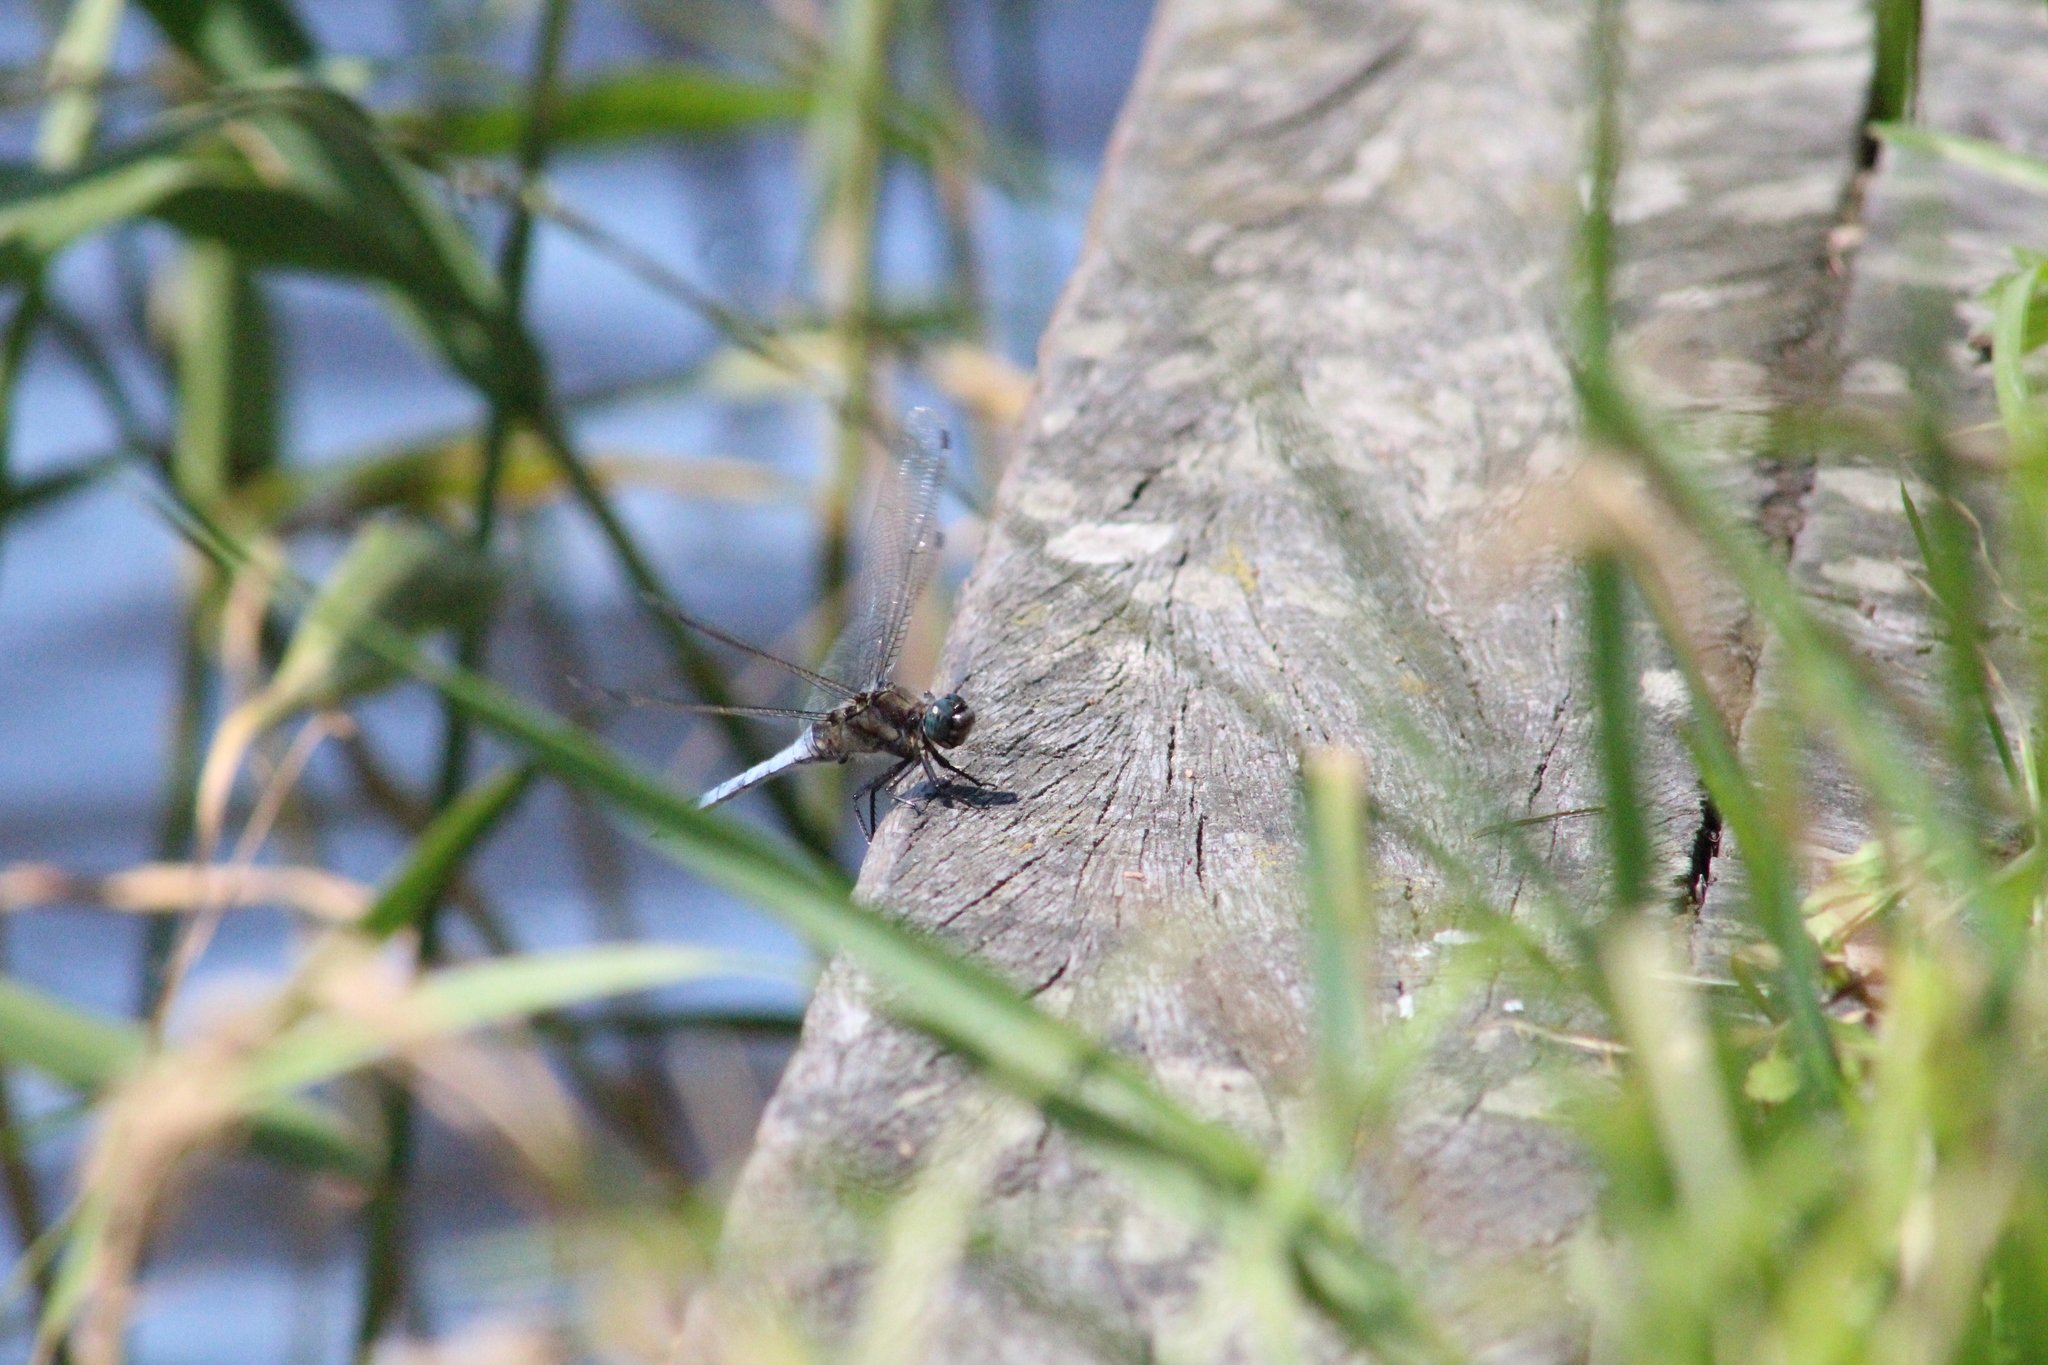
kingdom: Animalia
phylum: Arthropoda
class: Insecta
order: Odonata
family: Libellulidae
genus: Orthetrum
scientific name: Orthetrum cancellatum
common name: Black-tailed skimmer
